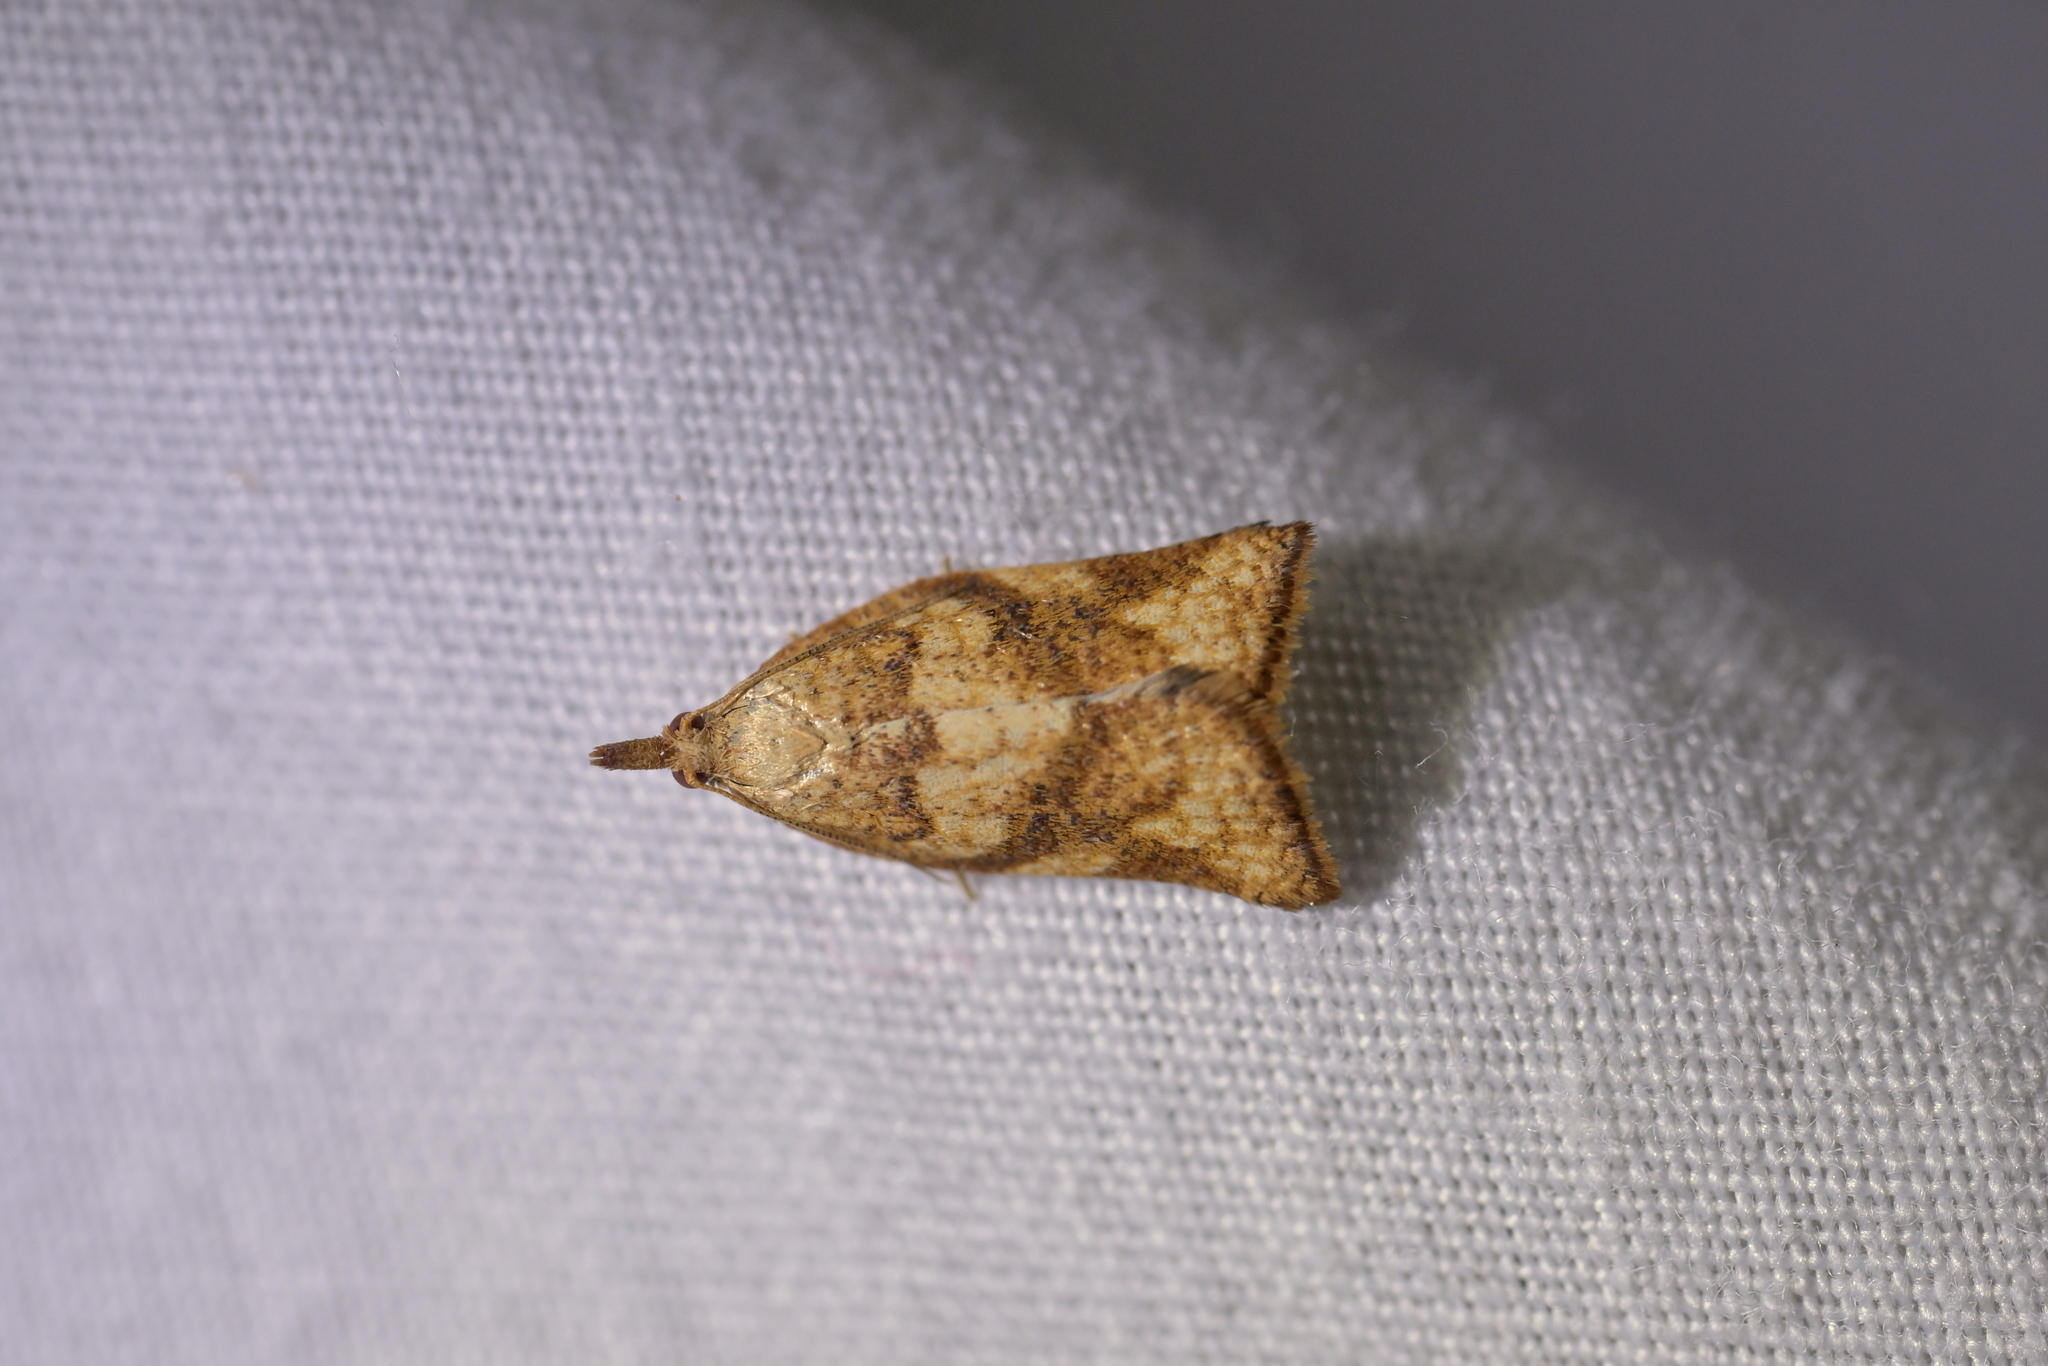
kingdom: Animalia
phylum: Arthropoda
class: Insecta
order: Lepidoptera
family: Tortricidae
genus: Catamacta
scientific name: Catamacta gavisana
